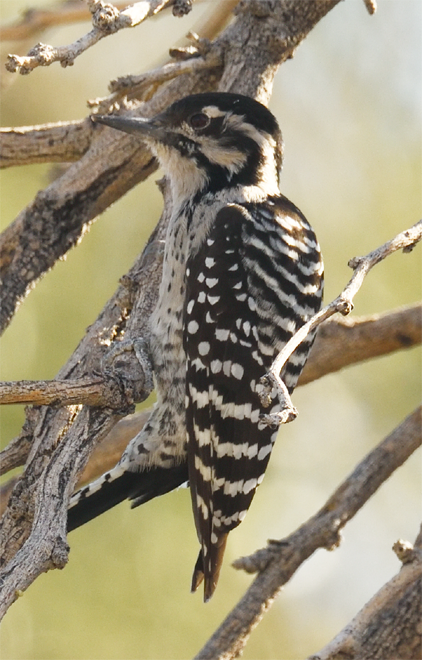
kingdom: Animalia
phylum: Chordata
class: Aves
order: Piciformes
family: Picidae
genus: Dryobates
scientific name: Dryobates scalaris
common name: Ladder-backed woodpecker
